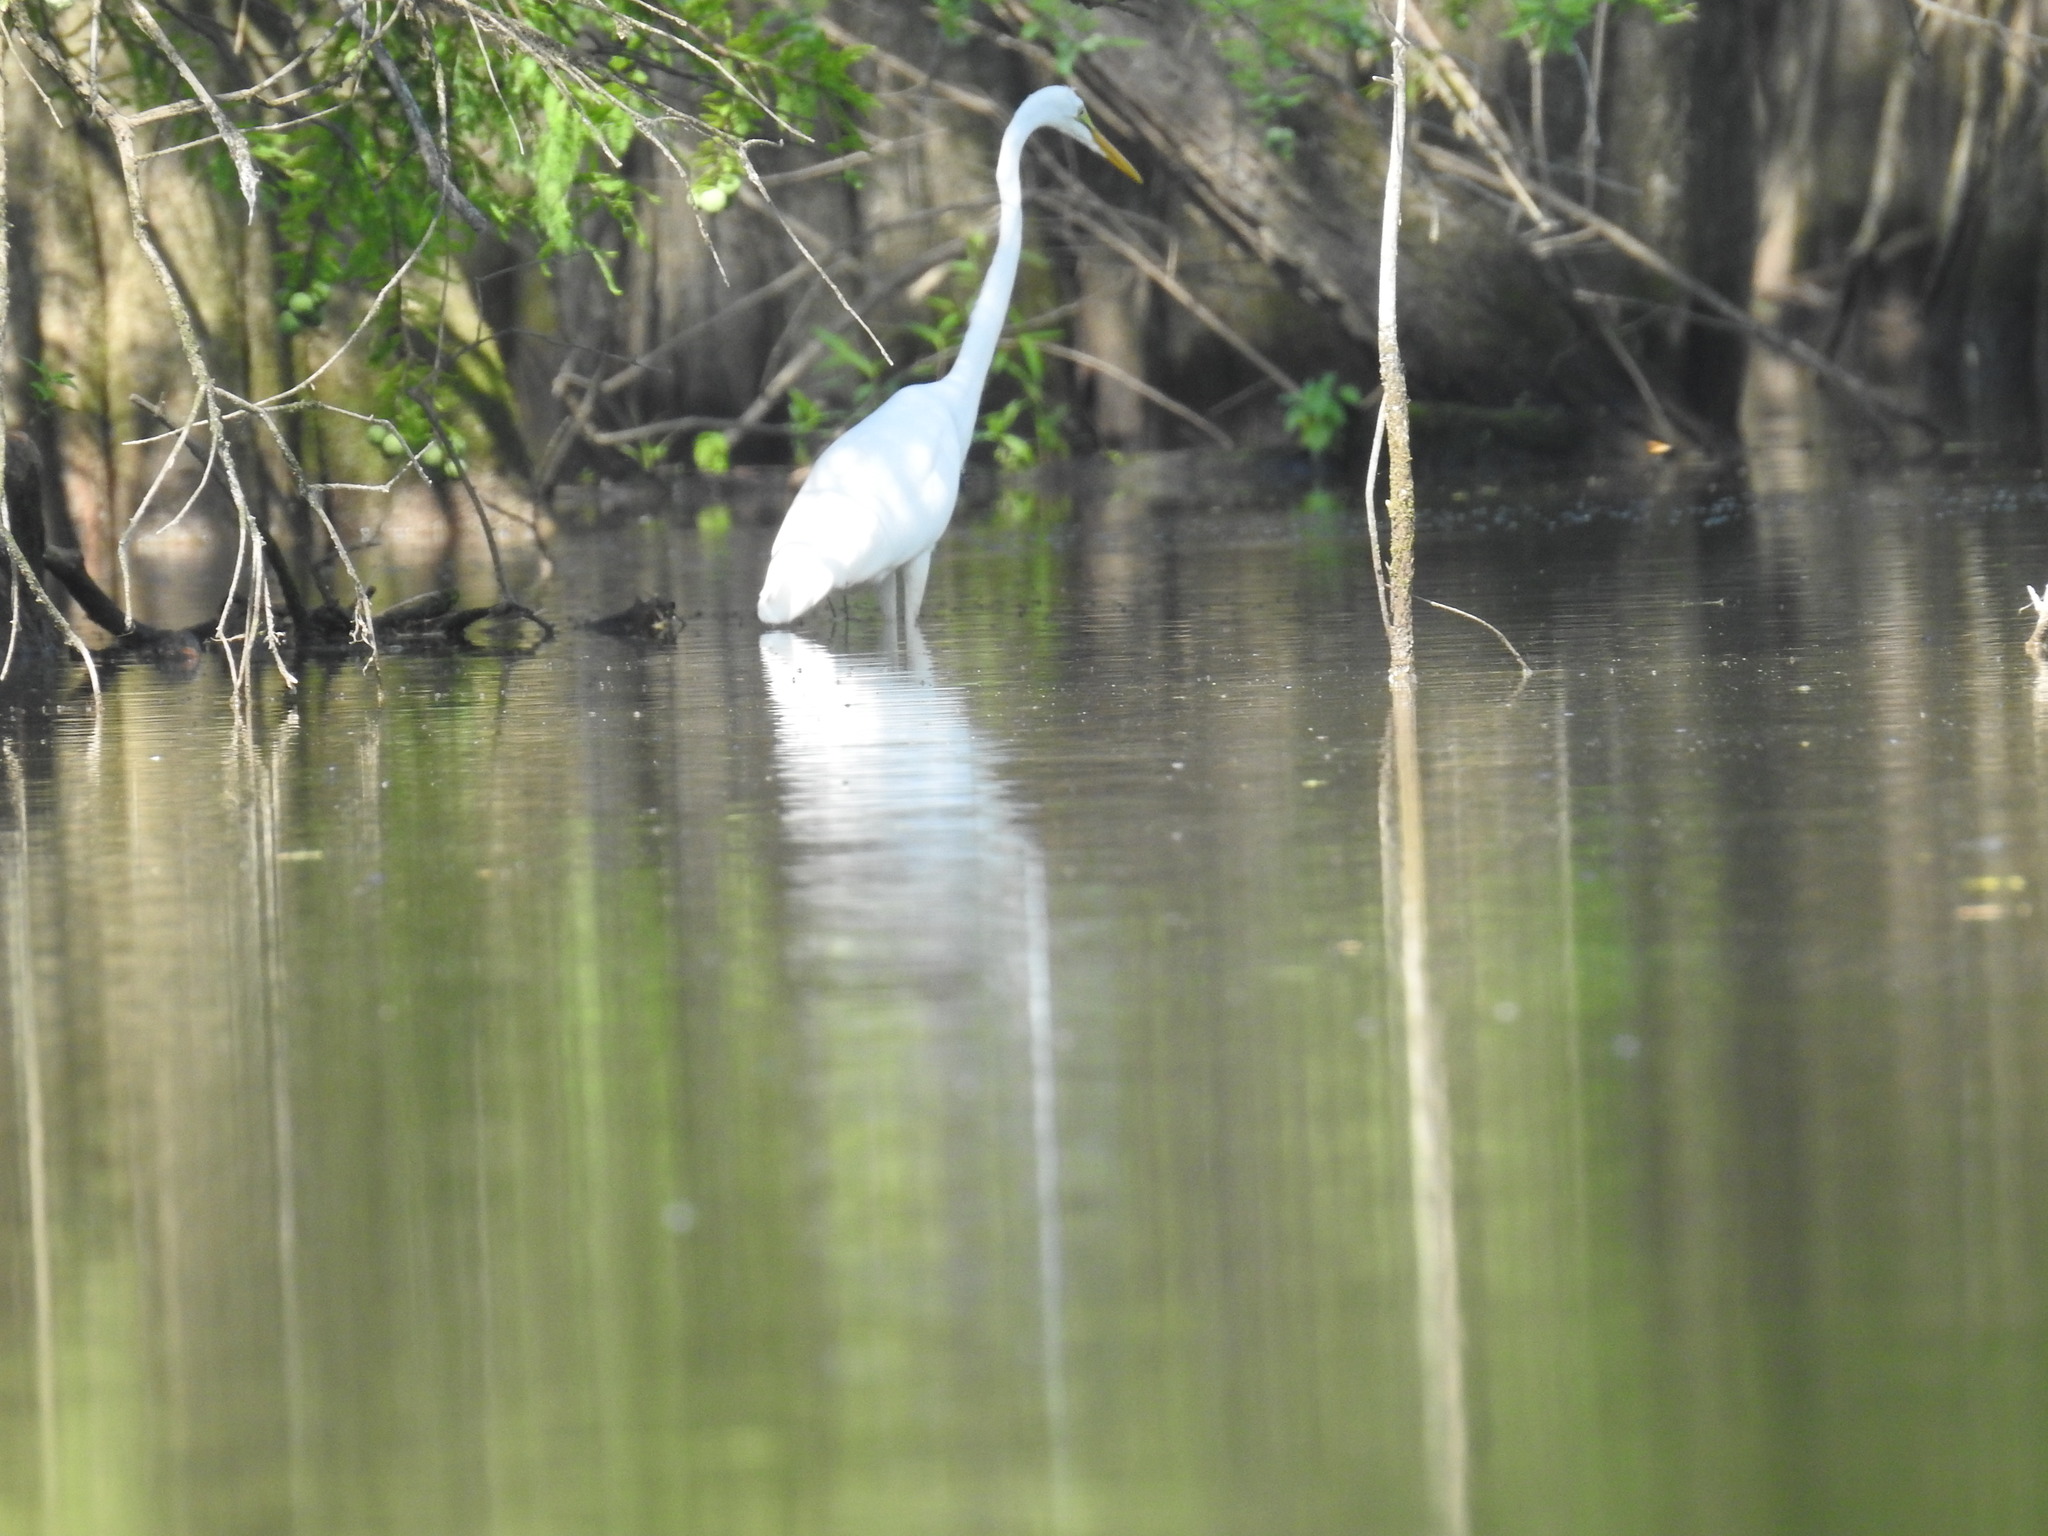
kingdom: Animalia
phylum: Chordata
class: Aves
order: Pelecaniformes
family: Ardeidae
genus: Ardea
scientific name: Ardea alba
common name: Great egret
